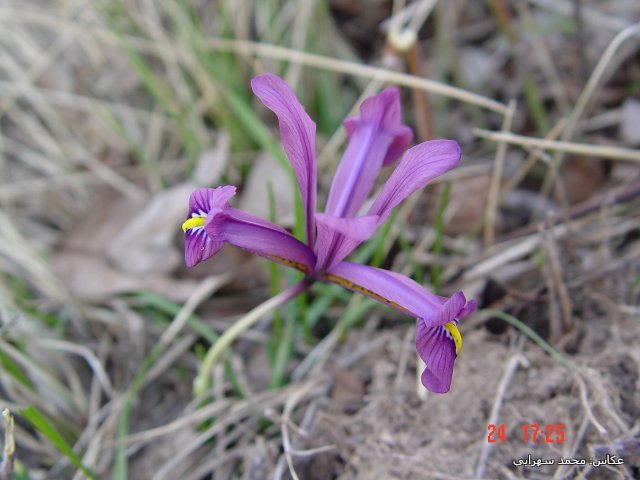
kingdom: Plantae
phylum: Tracheophyta
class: Liliopsida
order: Asparagales
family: Iridaceae
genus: Iris
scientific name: Iris reticulata
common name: Netted iris
